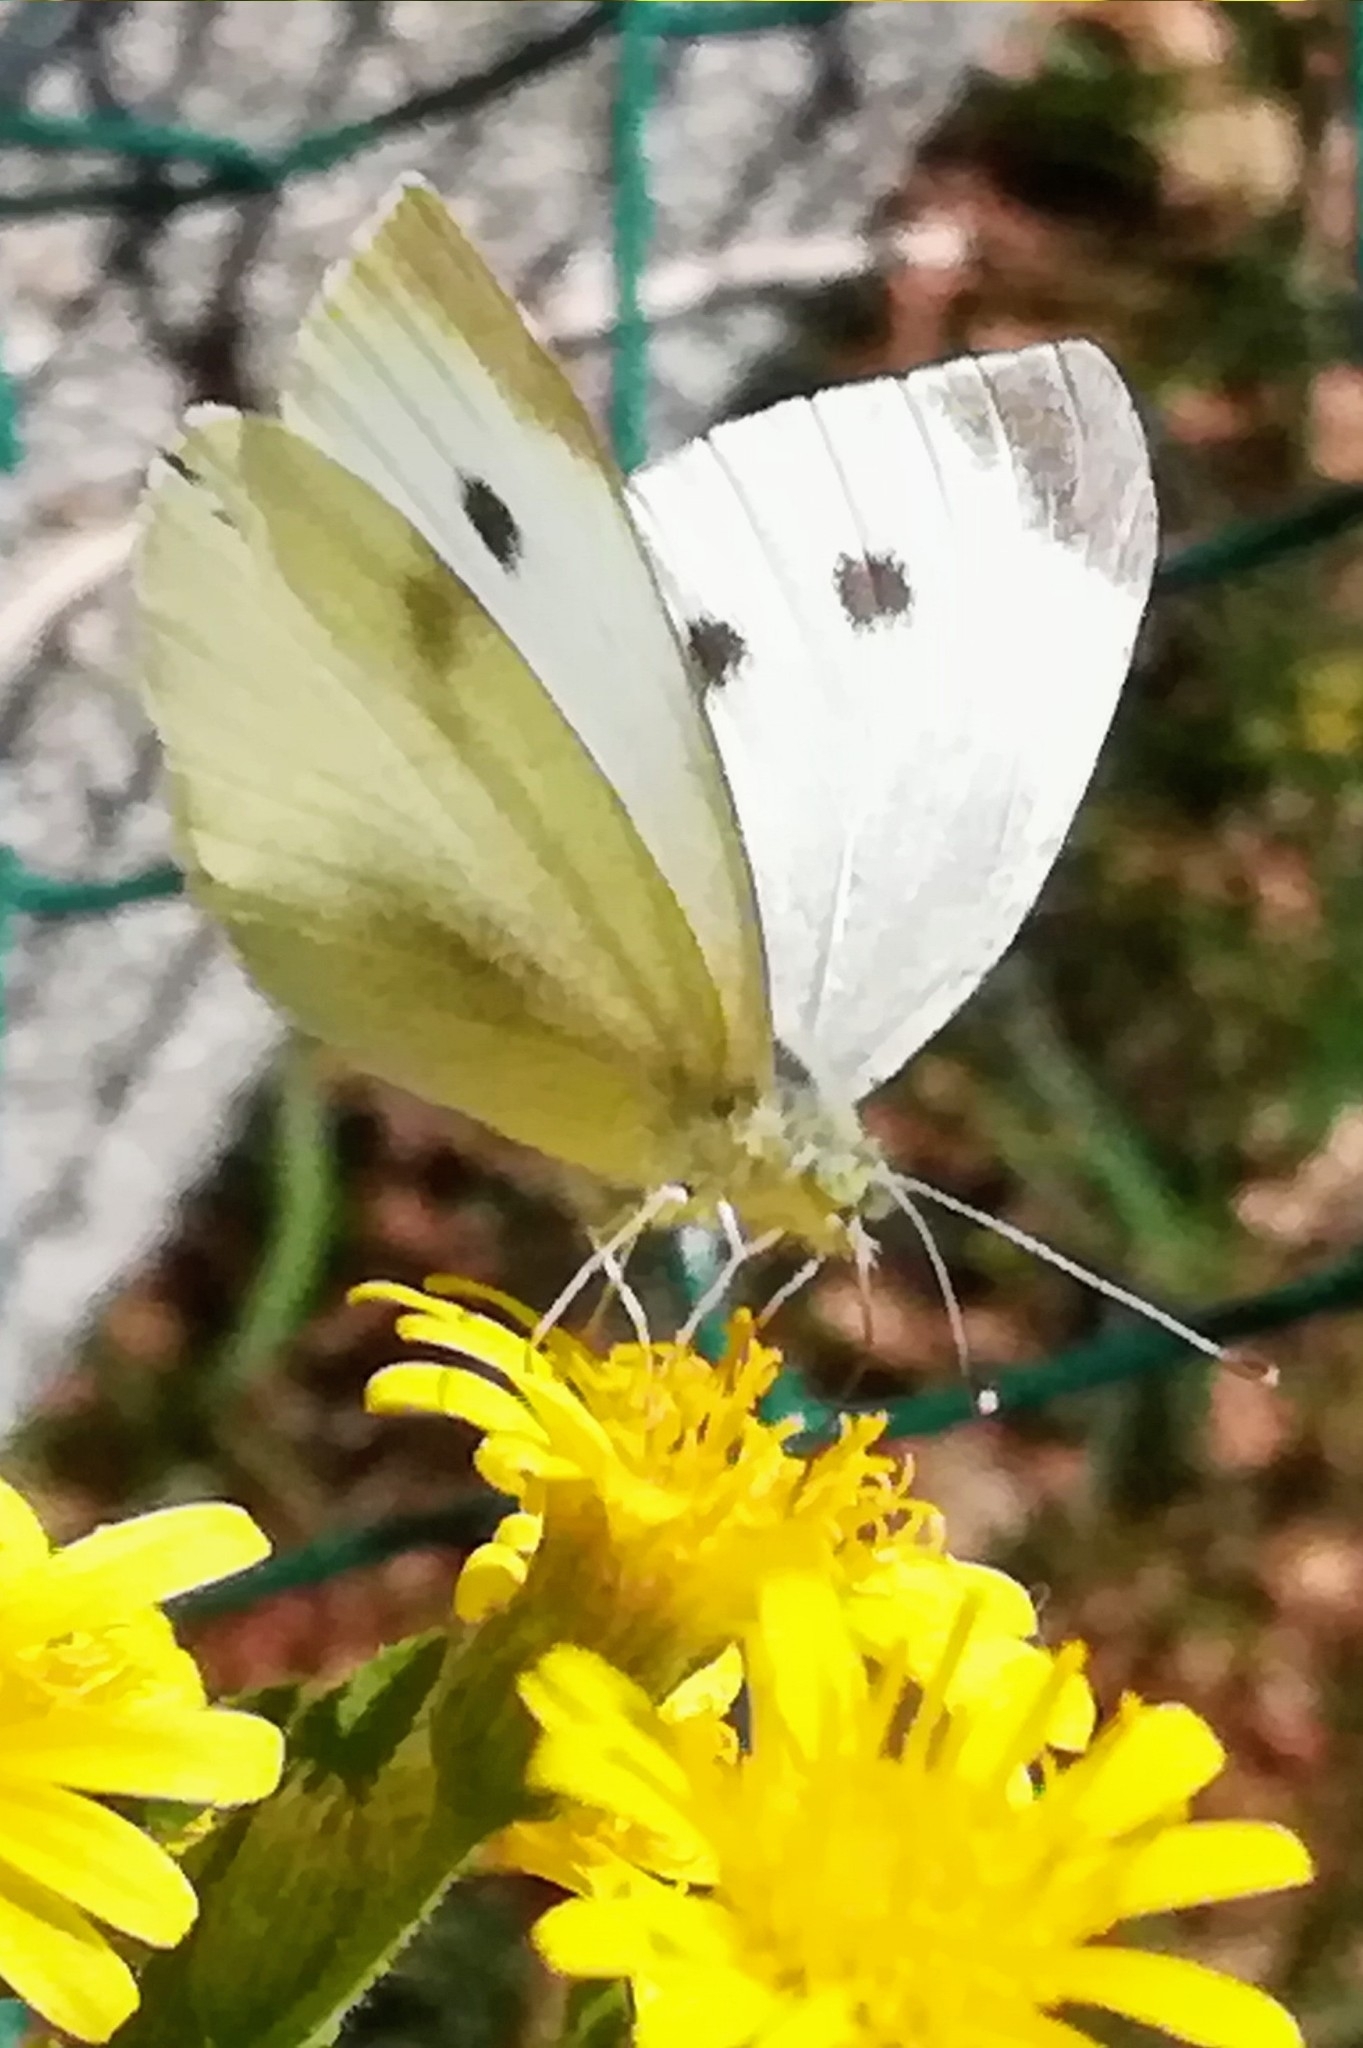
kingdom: Animalia
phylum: Arthropoda
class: Insecta
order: Lepidoptera
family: Pieridae
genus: Pieris
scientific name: Pieris rapae
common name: Small white
